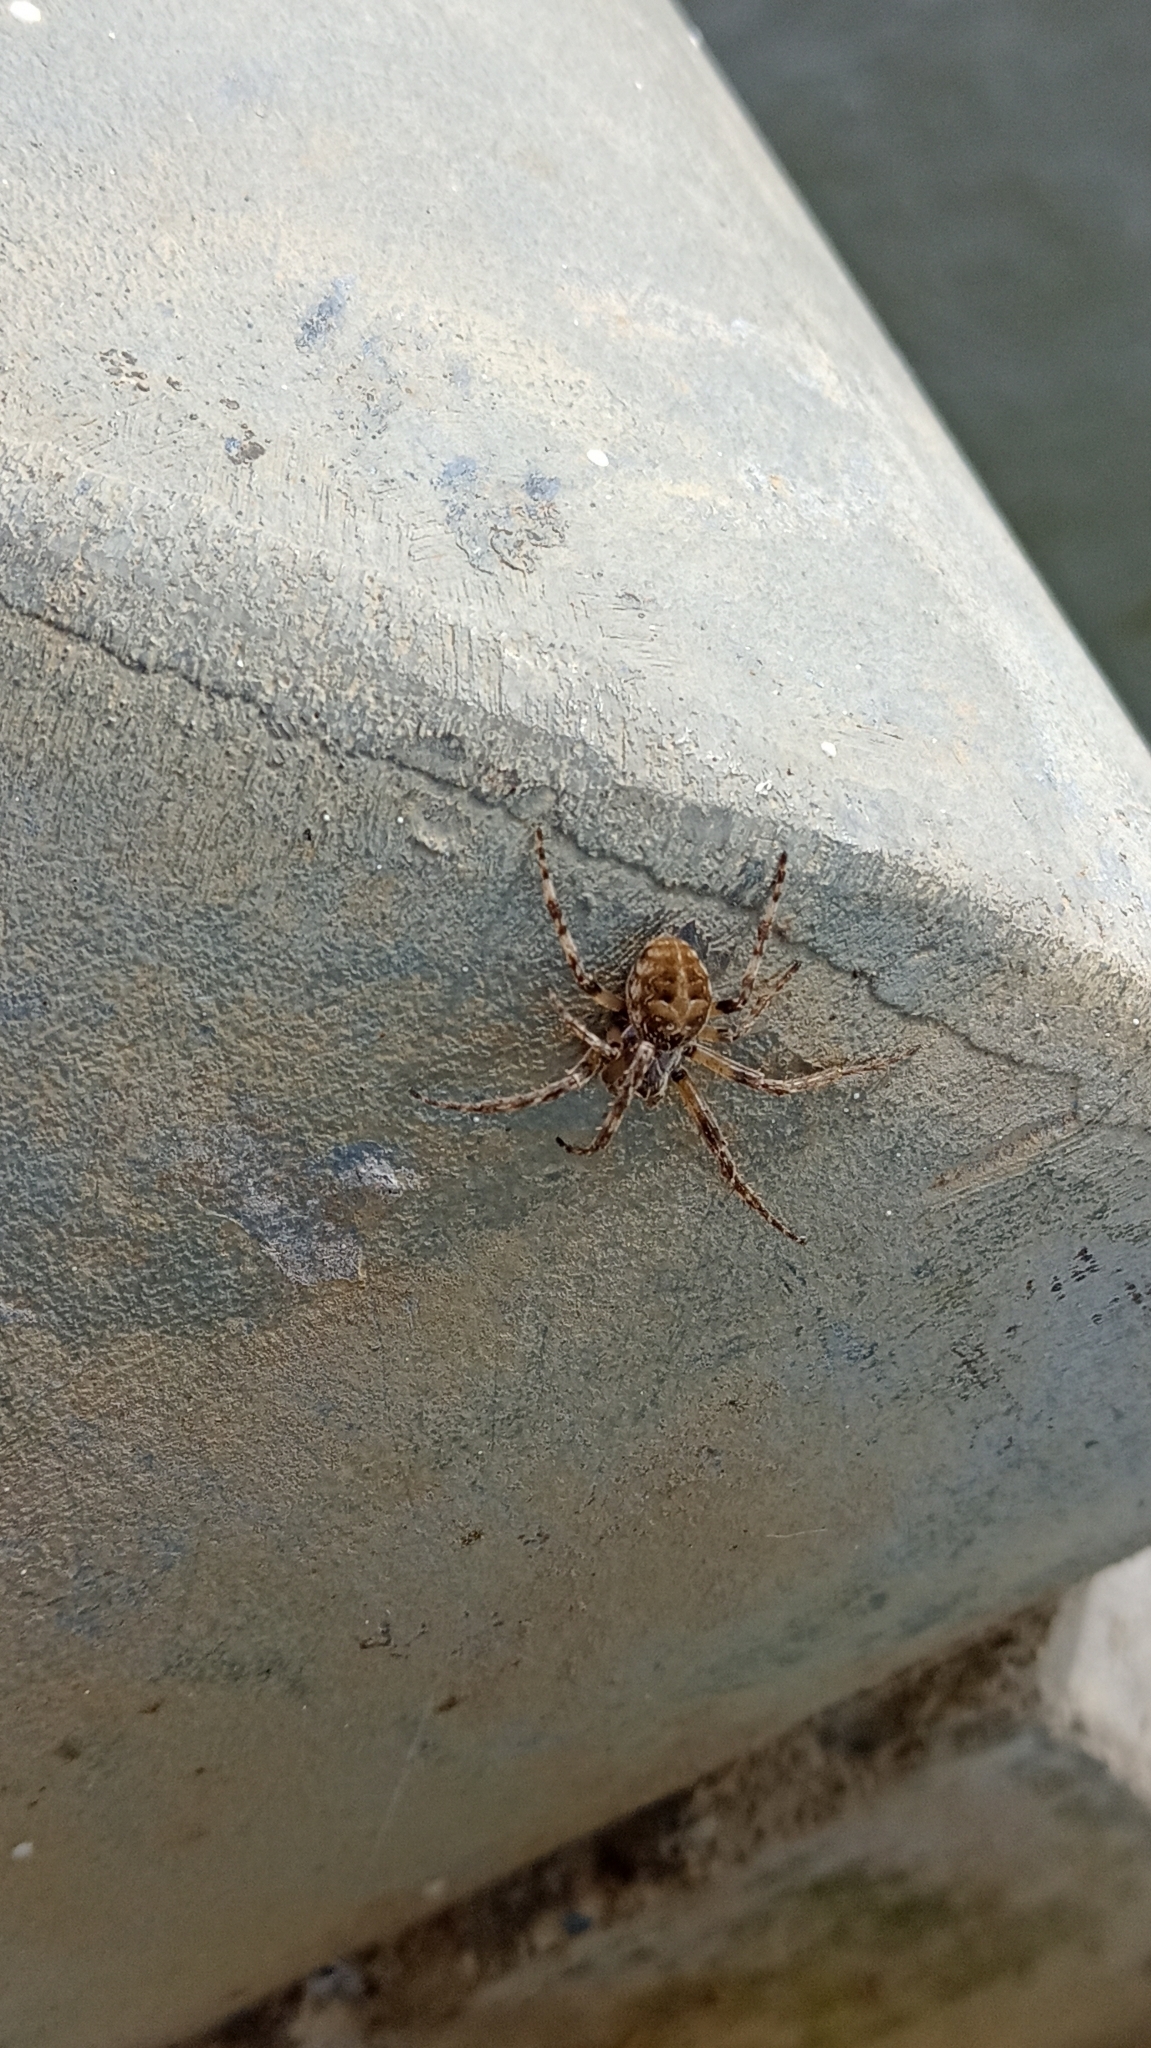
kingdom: Animalia
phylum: Arthropoda
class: Arachnida
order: Araneae
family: Araneidae
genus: Larinioides
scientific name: Larinioides sclopetarius
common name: Bridge orbweaver
